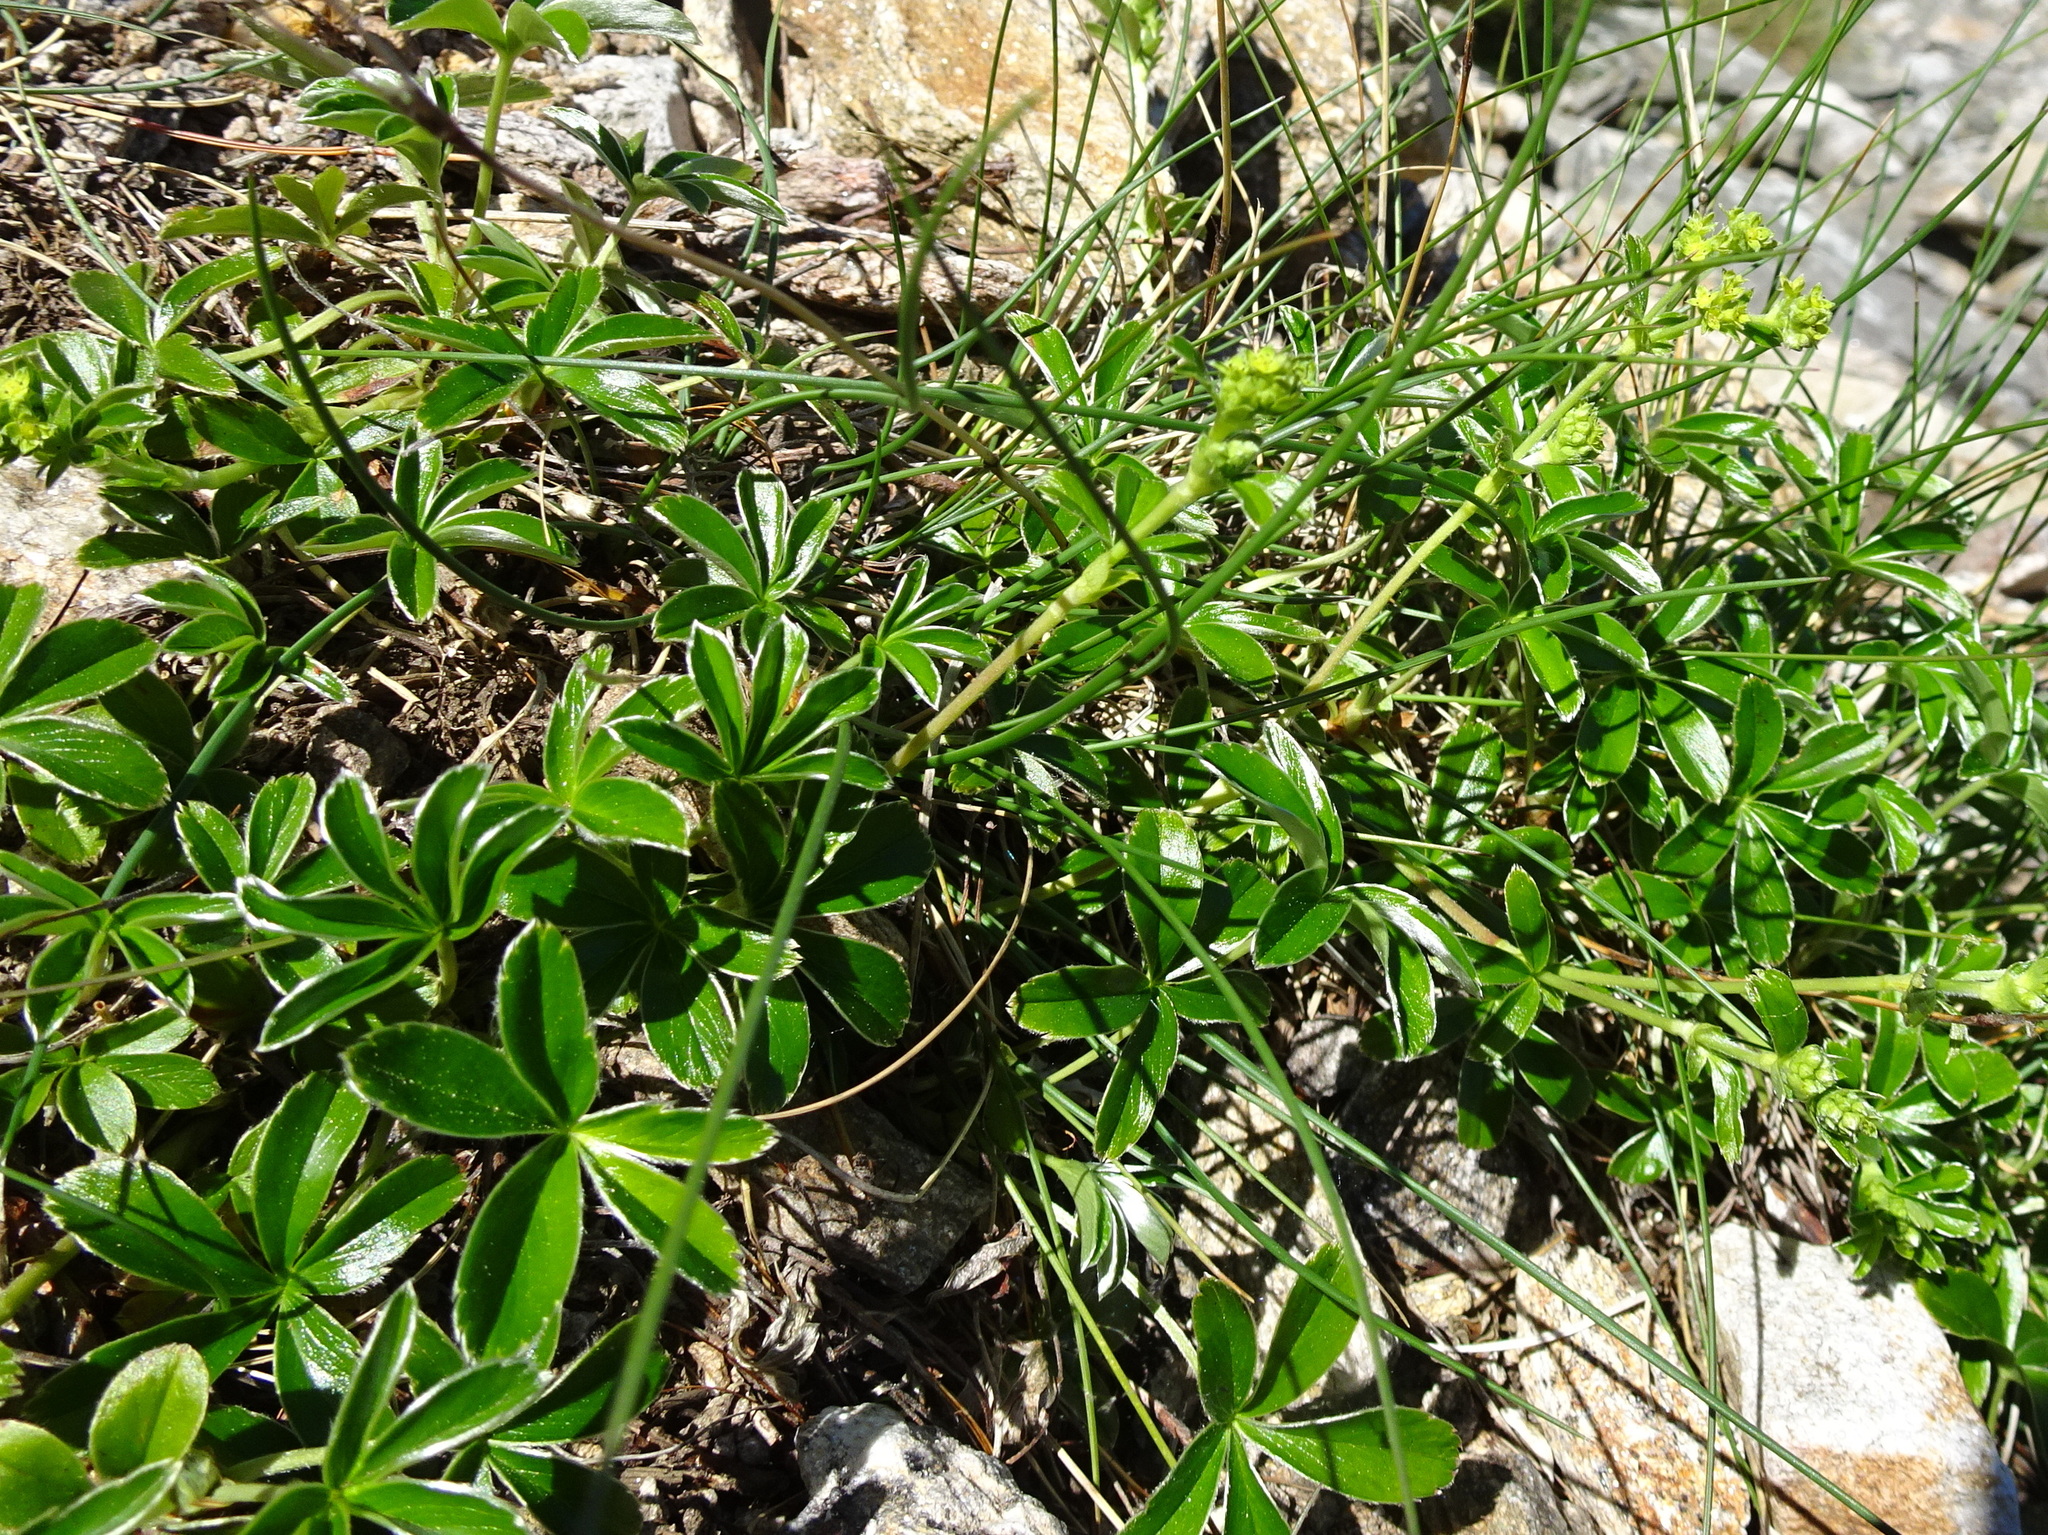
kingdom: Plantae
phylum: Tracheophyta
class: Magnoliopsida
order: Rosales
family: Rosaceae
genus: Alchemilla
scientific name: Alchemilla saxatilis
